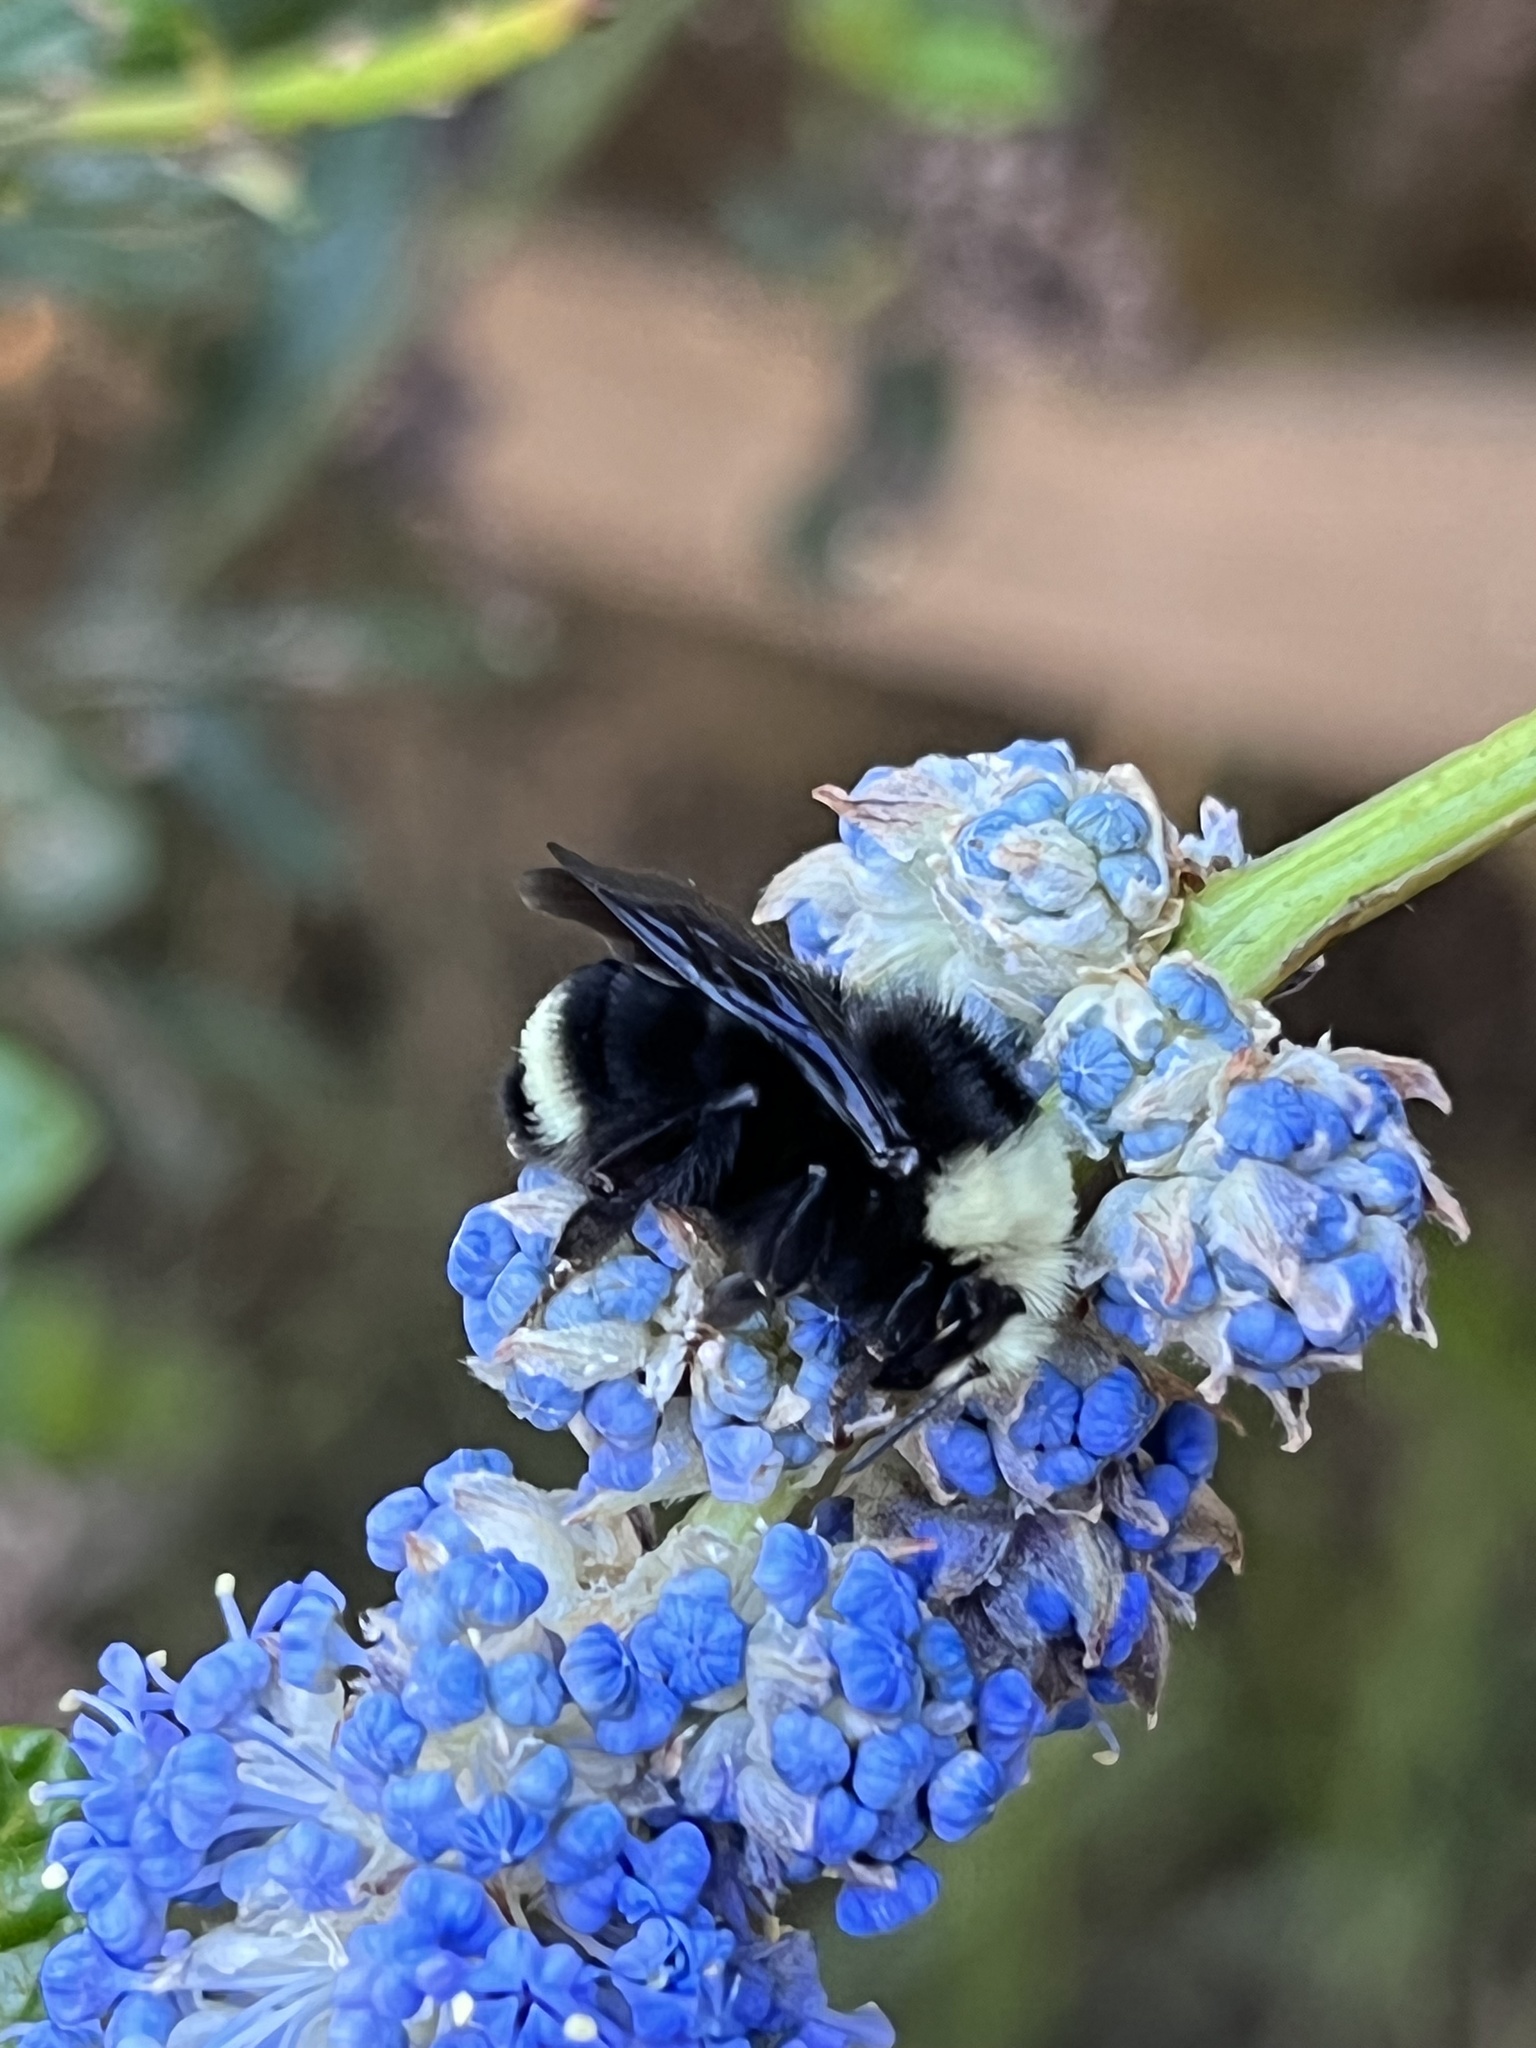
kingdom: Animalia
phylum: Arthropoda
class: Insecta
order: Hymenoptera
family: Apidae
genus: Bombus
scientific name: Bombus vosnesenskii
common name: Vosnesensky bumble bee
